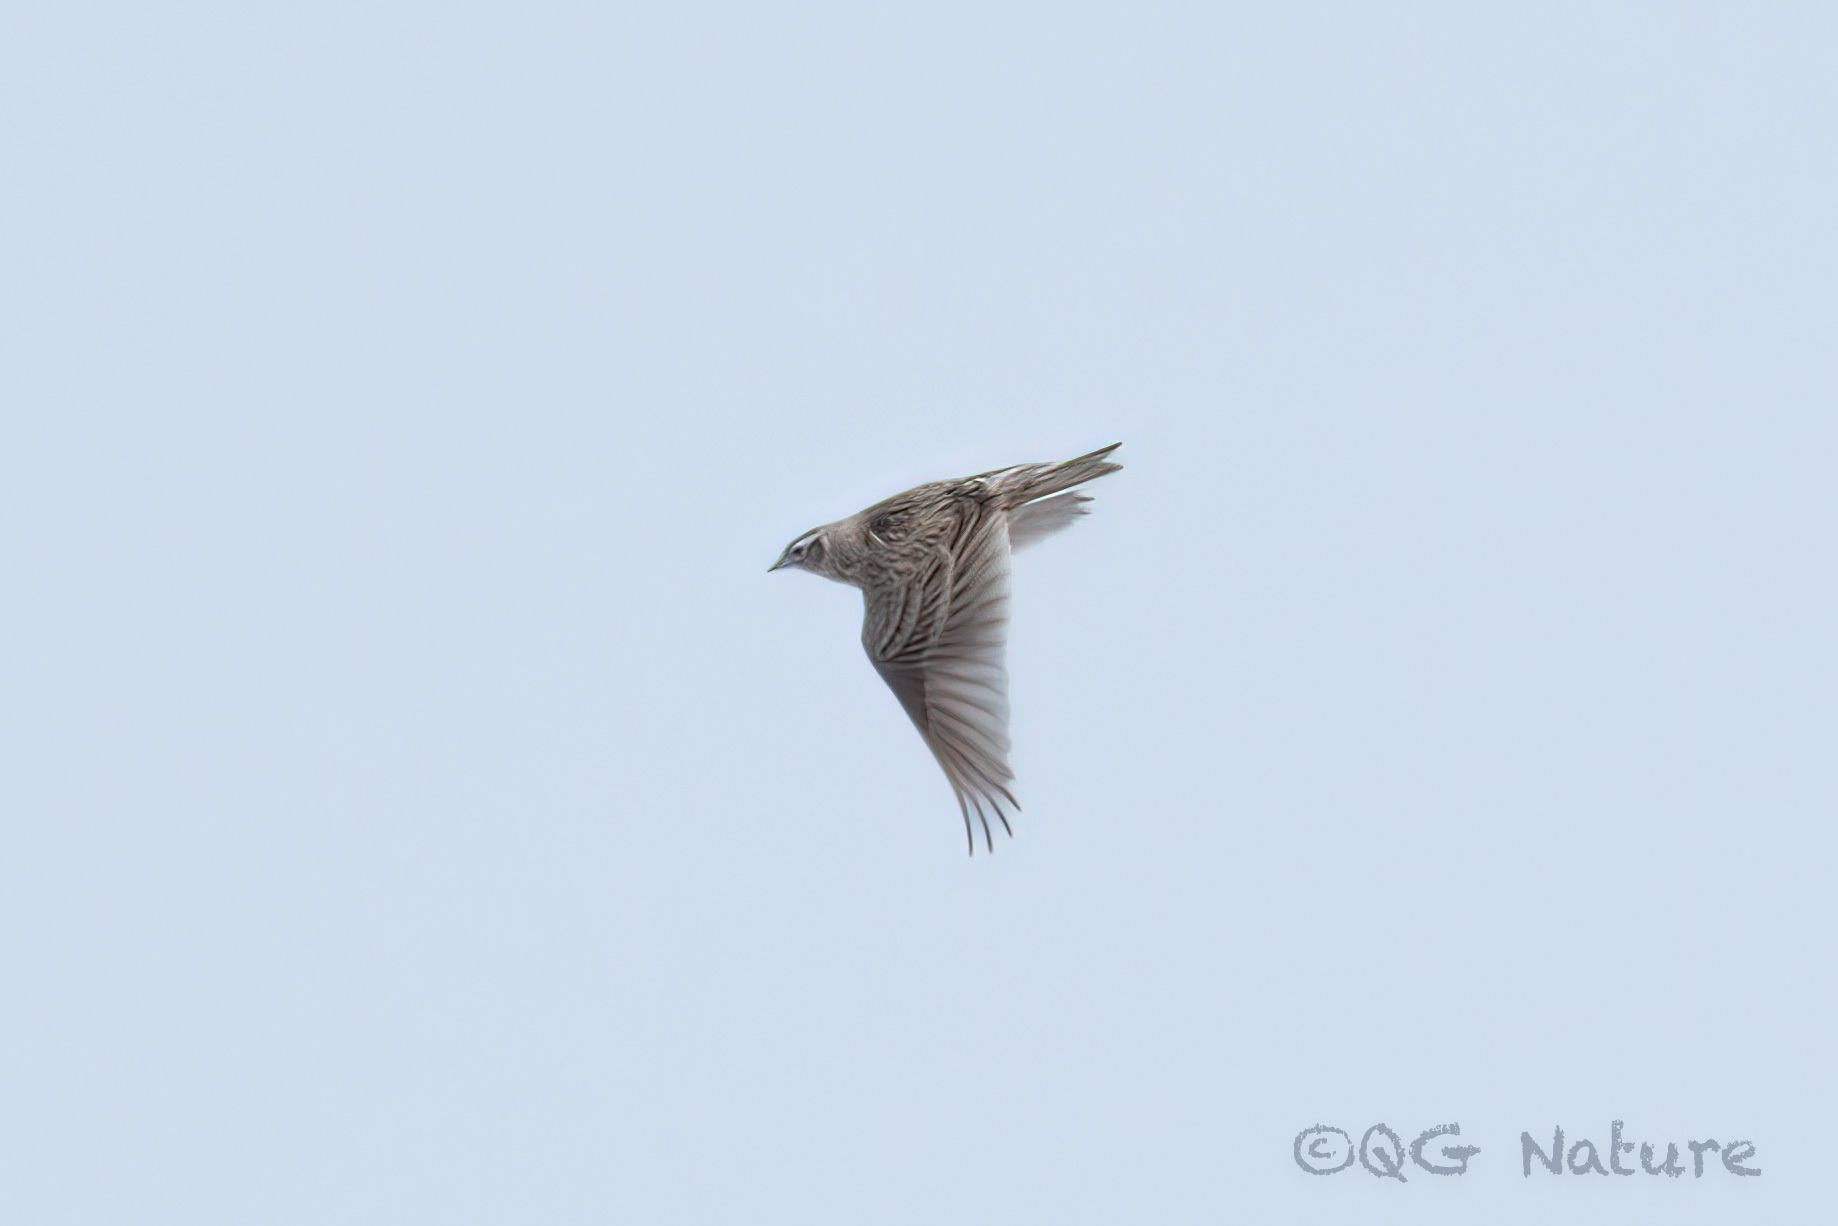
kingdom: Animalia
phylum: Chordata
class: Aves
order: Passeriformes
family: Alaudidae
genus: Alauda
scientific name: Alauda arvensis
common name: Eurasian skylark
